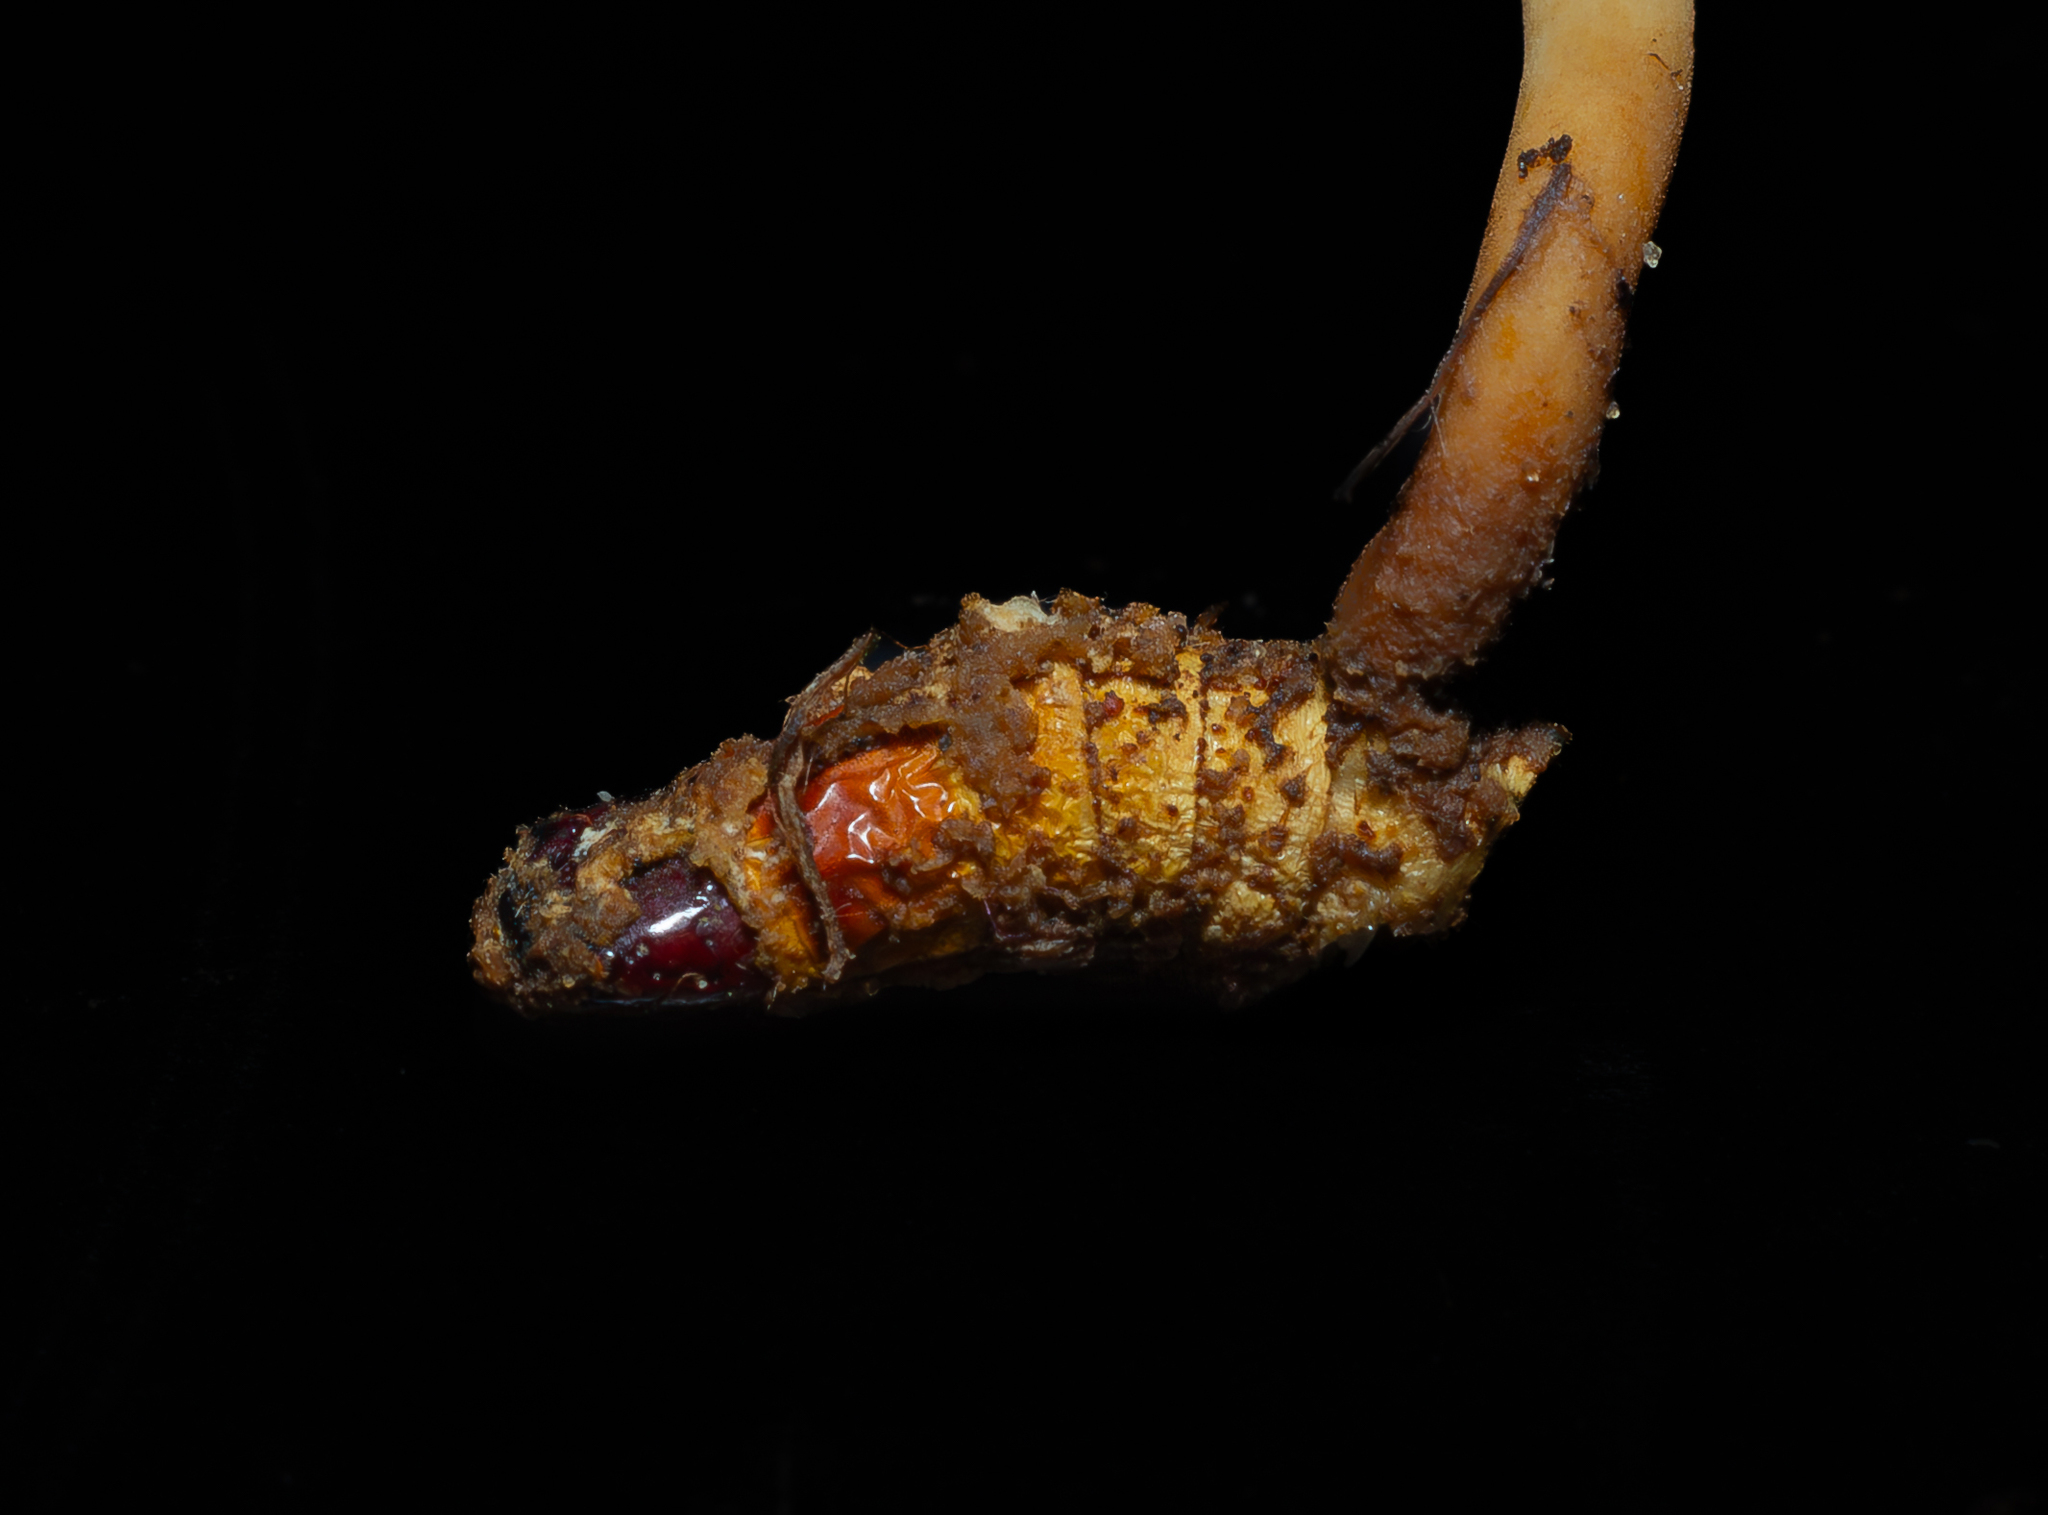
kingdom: Fungi
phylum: Ascomycota
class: Sordariomycetes
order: Hypocreales
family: Ophiocordycipitaceae
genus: Ophiocordyceps
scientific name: Ophiocordyceps glaziovii
